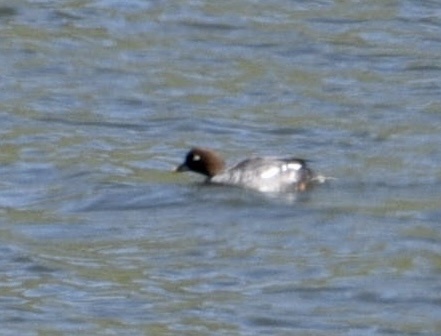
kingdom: Animalia
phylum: Chordata
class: Aves
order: Anseriformes
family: Anatidae
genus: Bucephala
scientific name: Bucephala clangula
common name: Common goldeneye
